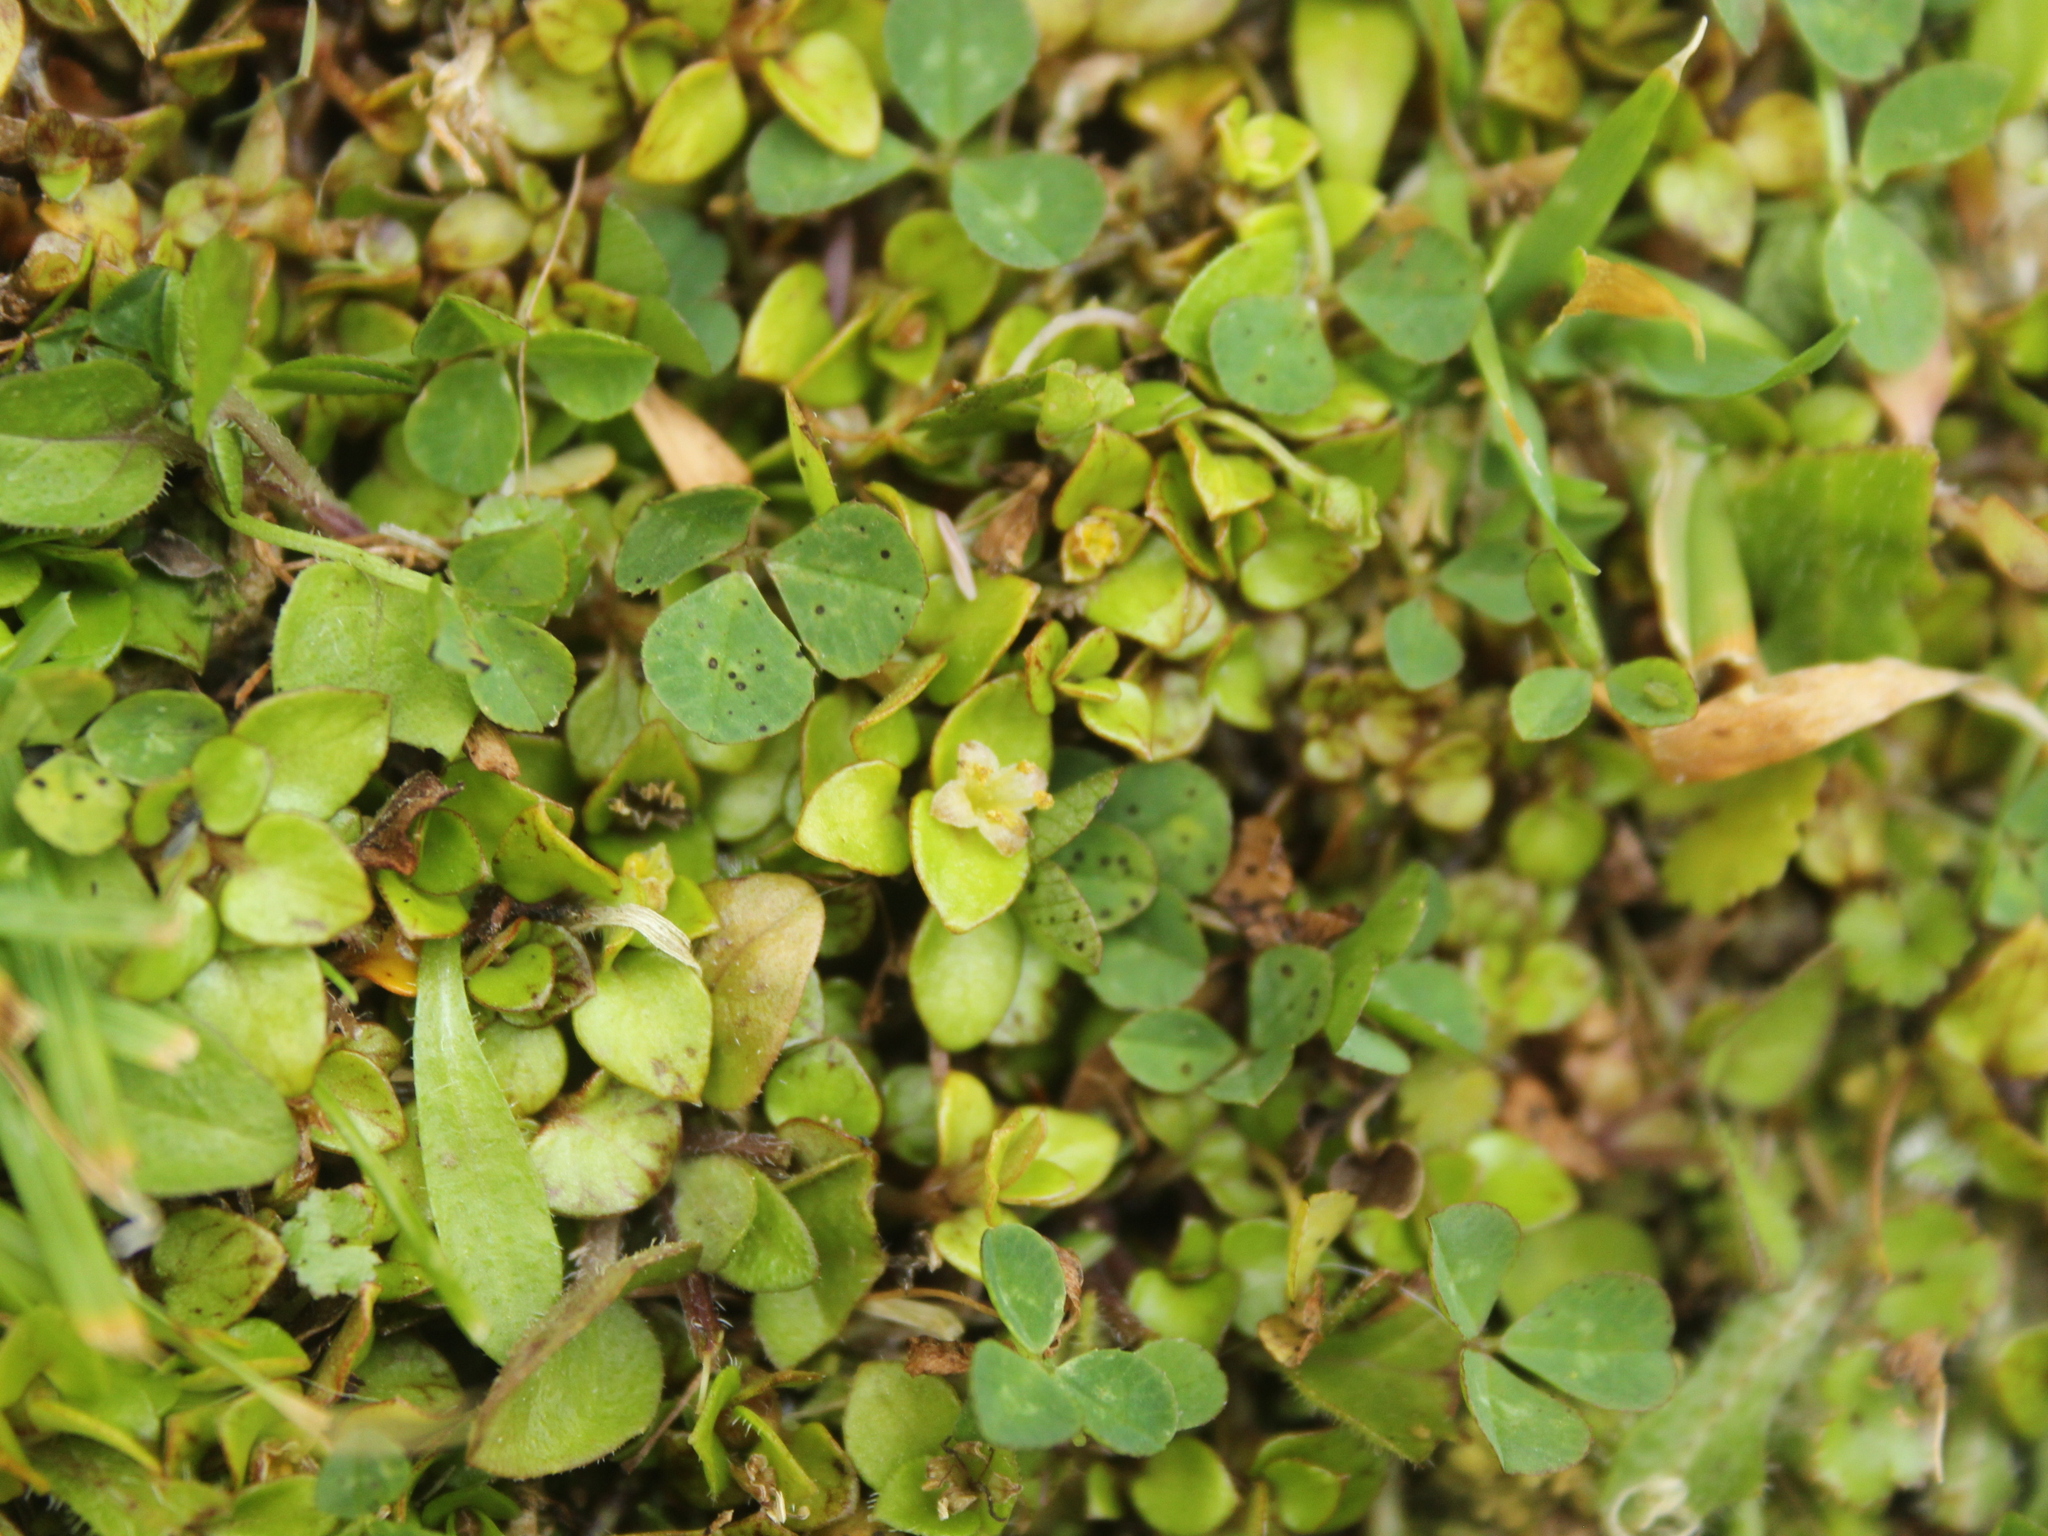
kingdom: Plantae
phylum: Tracheophyta
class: Magnoliopsida
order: Gentianales
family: Rubiaceae
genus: Nertera
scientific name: Nertera granadensis
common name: Beadplant
